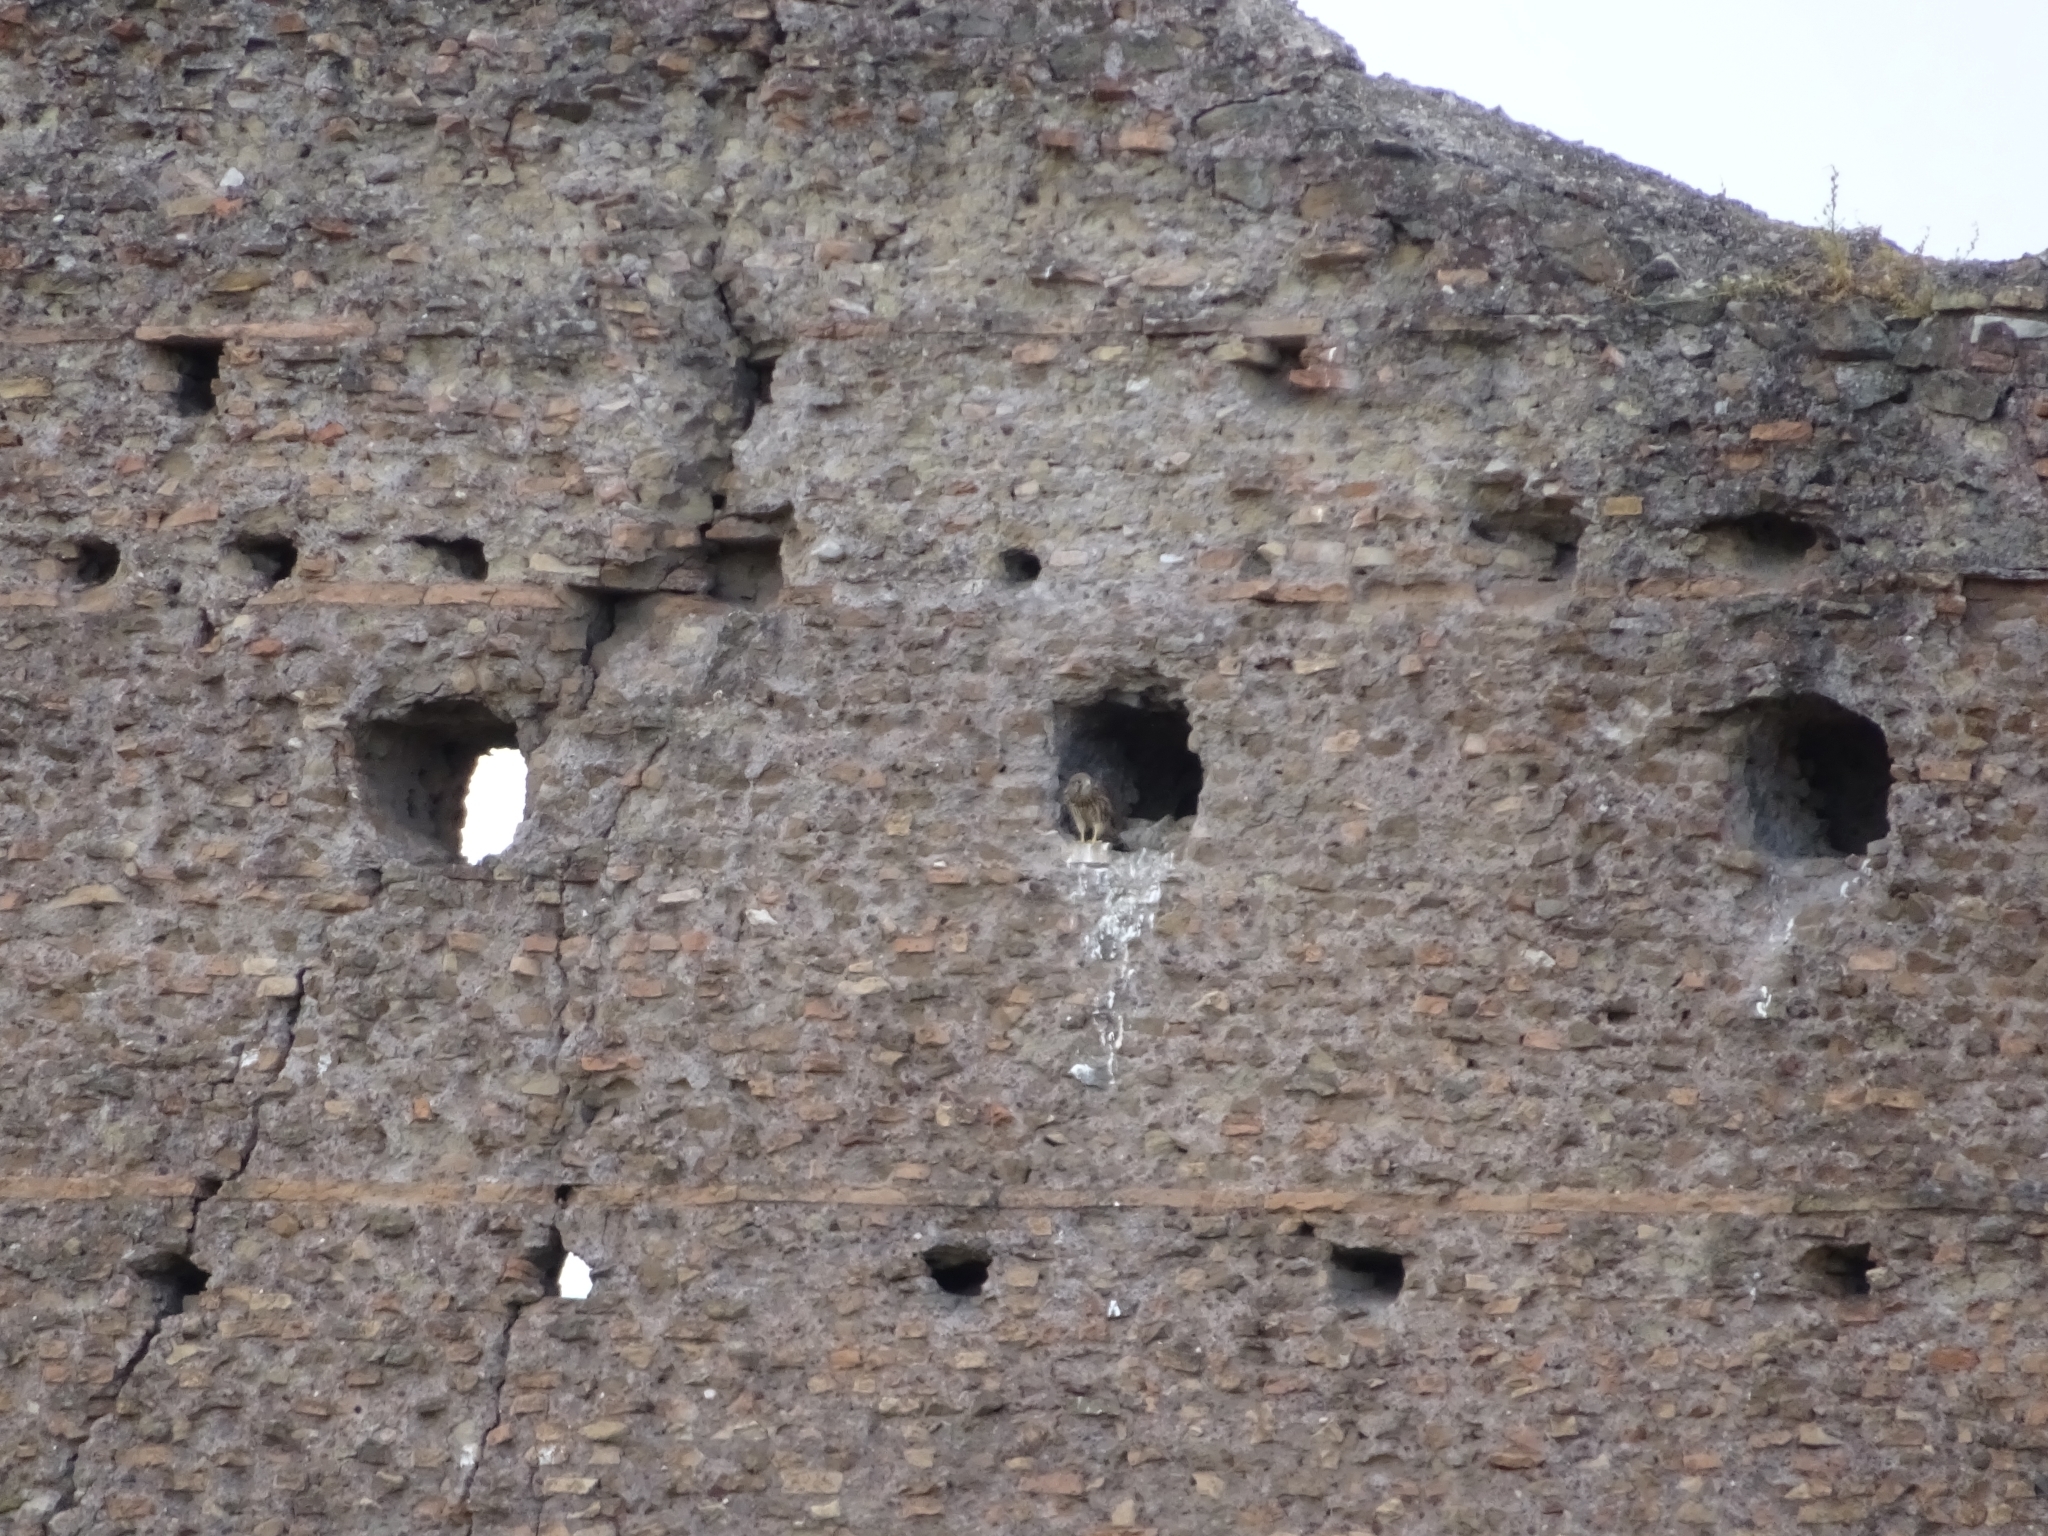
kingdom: Animalia
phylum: Chordata
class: Aves
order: Falconiformes
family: Falconidae
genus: Falco
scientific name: Falco tinnunculus
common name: Common kestrel
